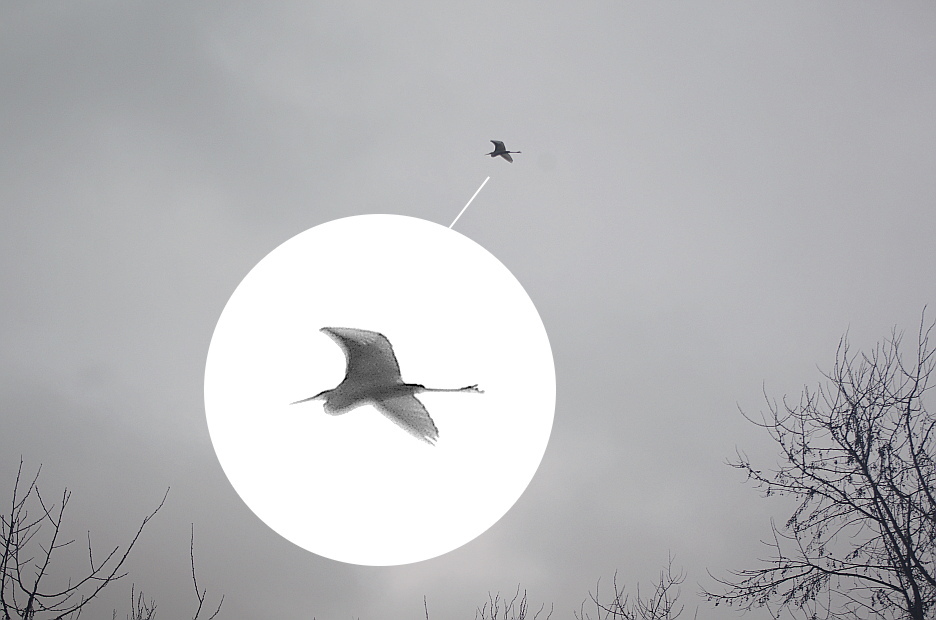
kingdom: Animalia
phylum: Chordata
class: Aves
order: Pelecaniformes
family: Ardeidae
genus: Ardea
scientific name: Ardea alba
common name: Great egret
